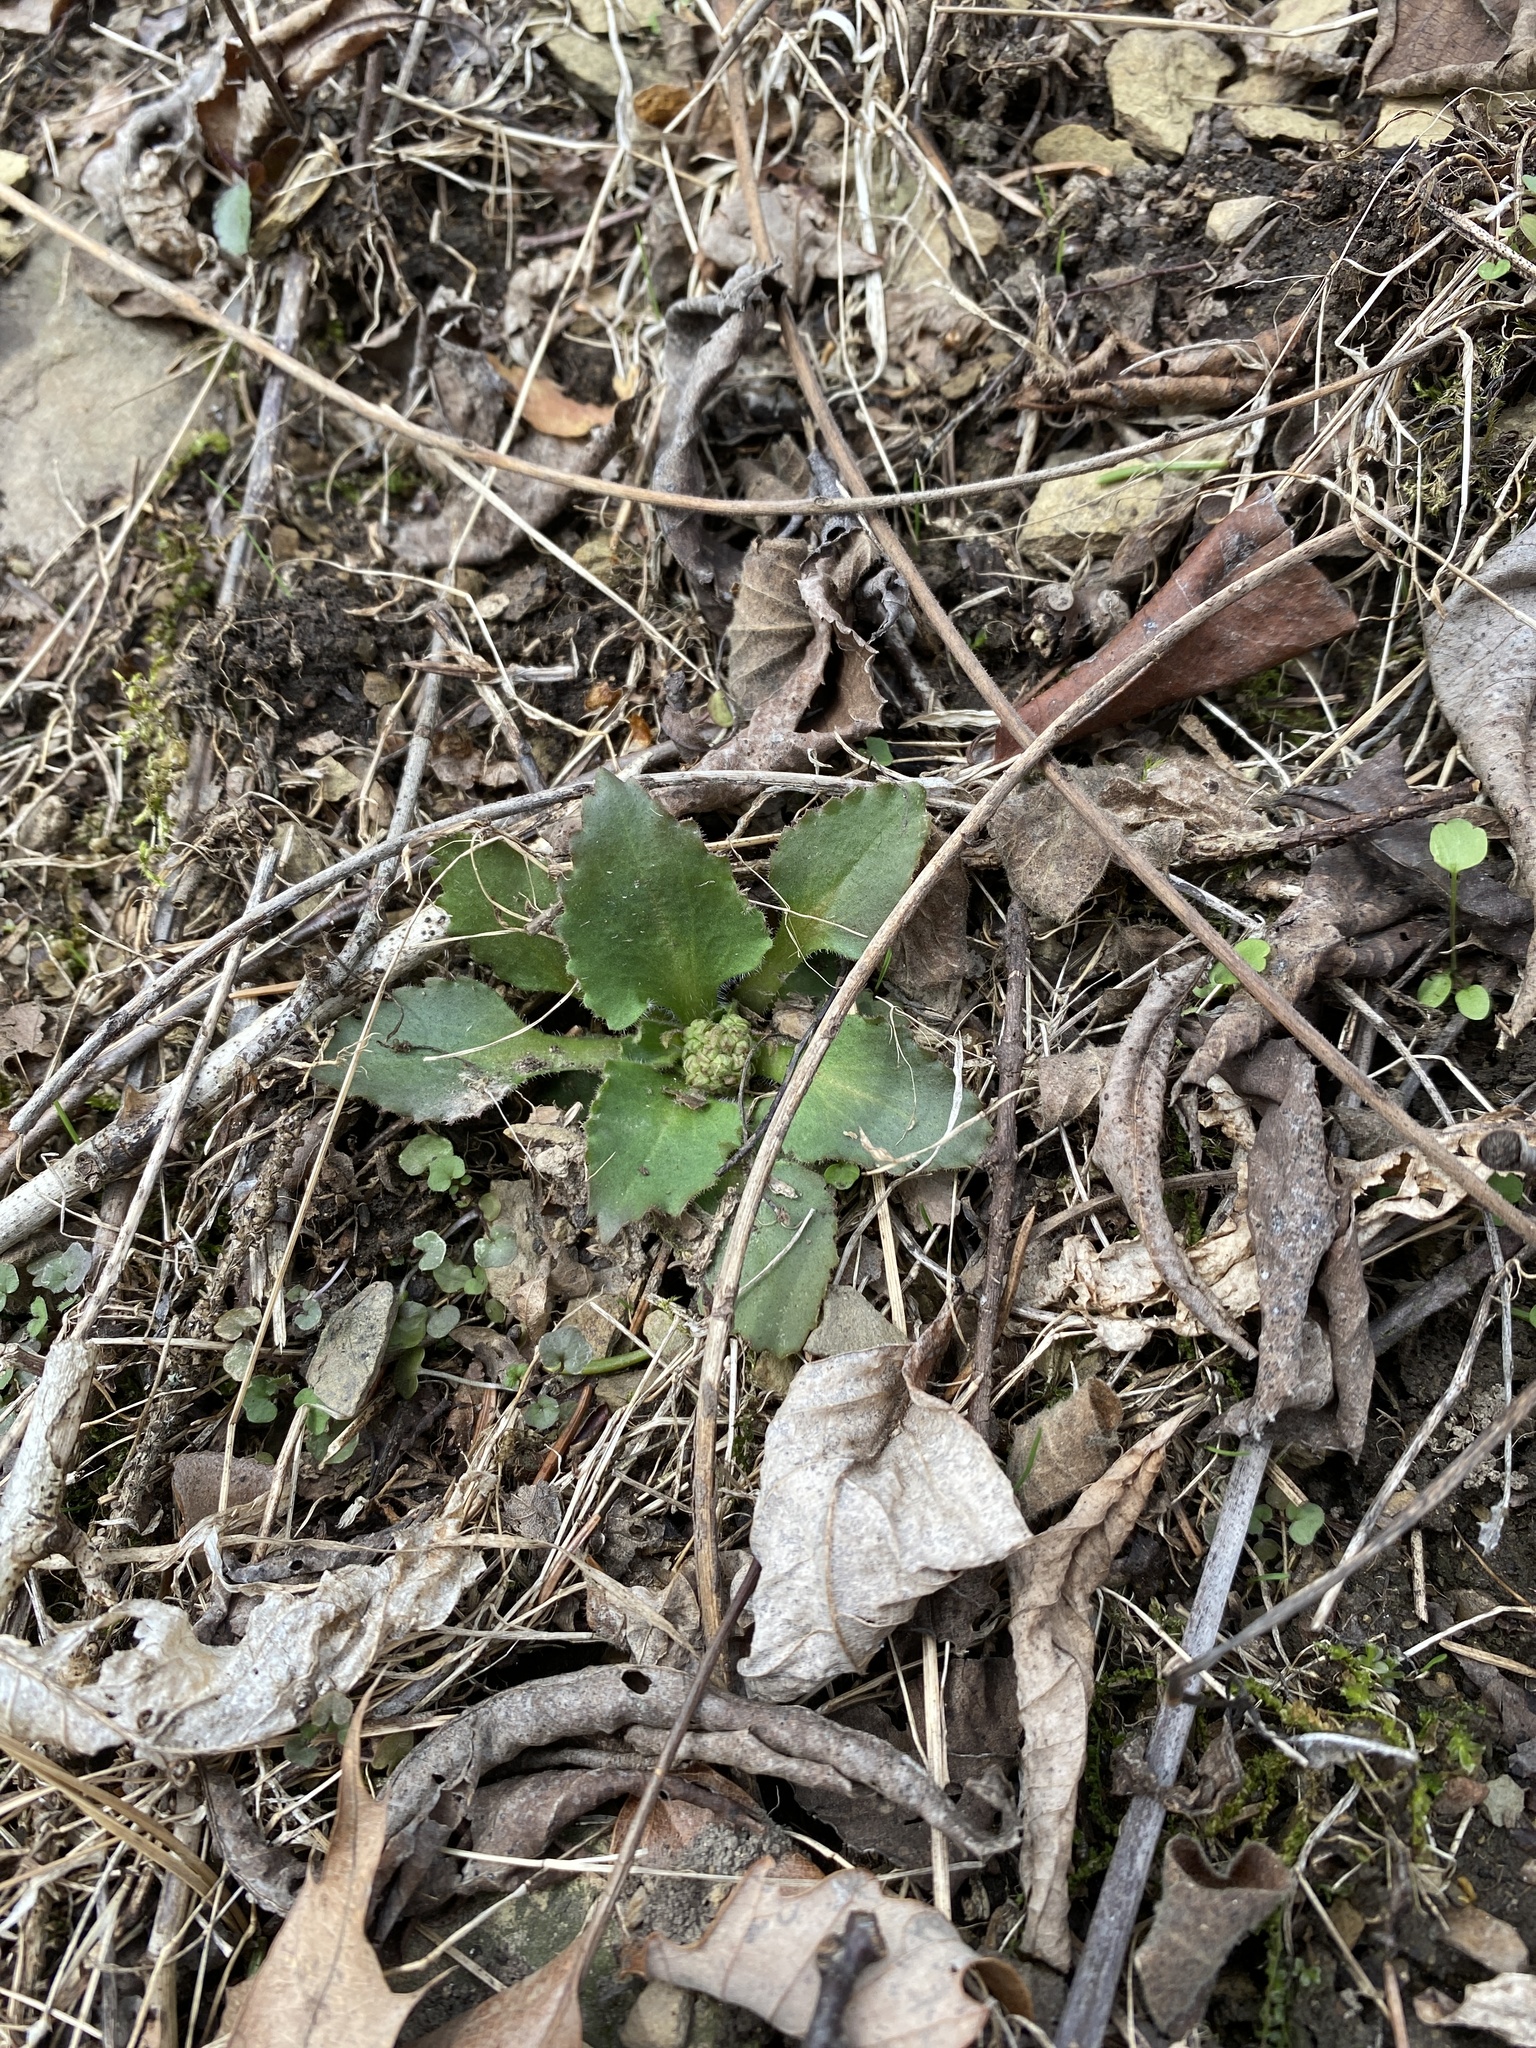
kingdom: Plantae
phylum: Tracheophyta
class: Magnoliopsida
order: Saxifragales
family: Saxifragaceae
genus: Micranthes
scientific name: Micranthes virginiensis
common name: Early saxifrage
